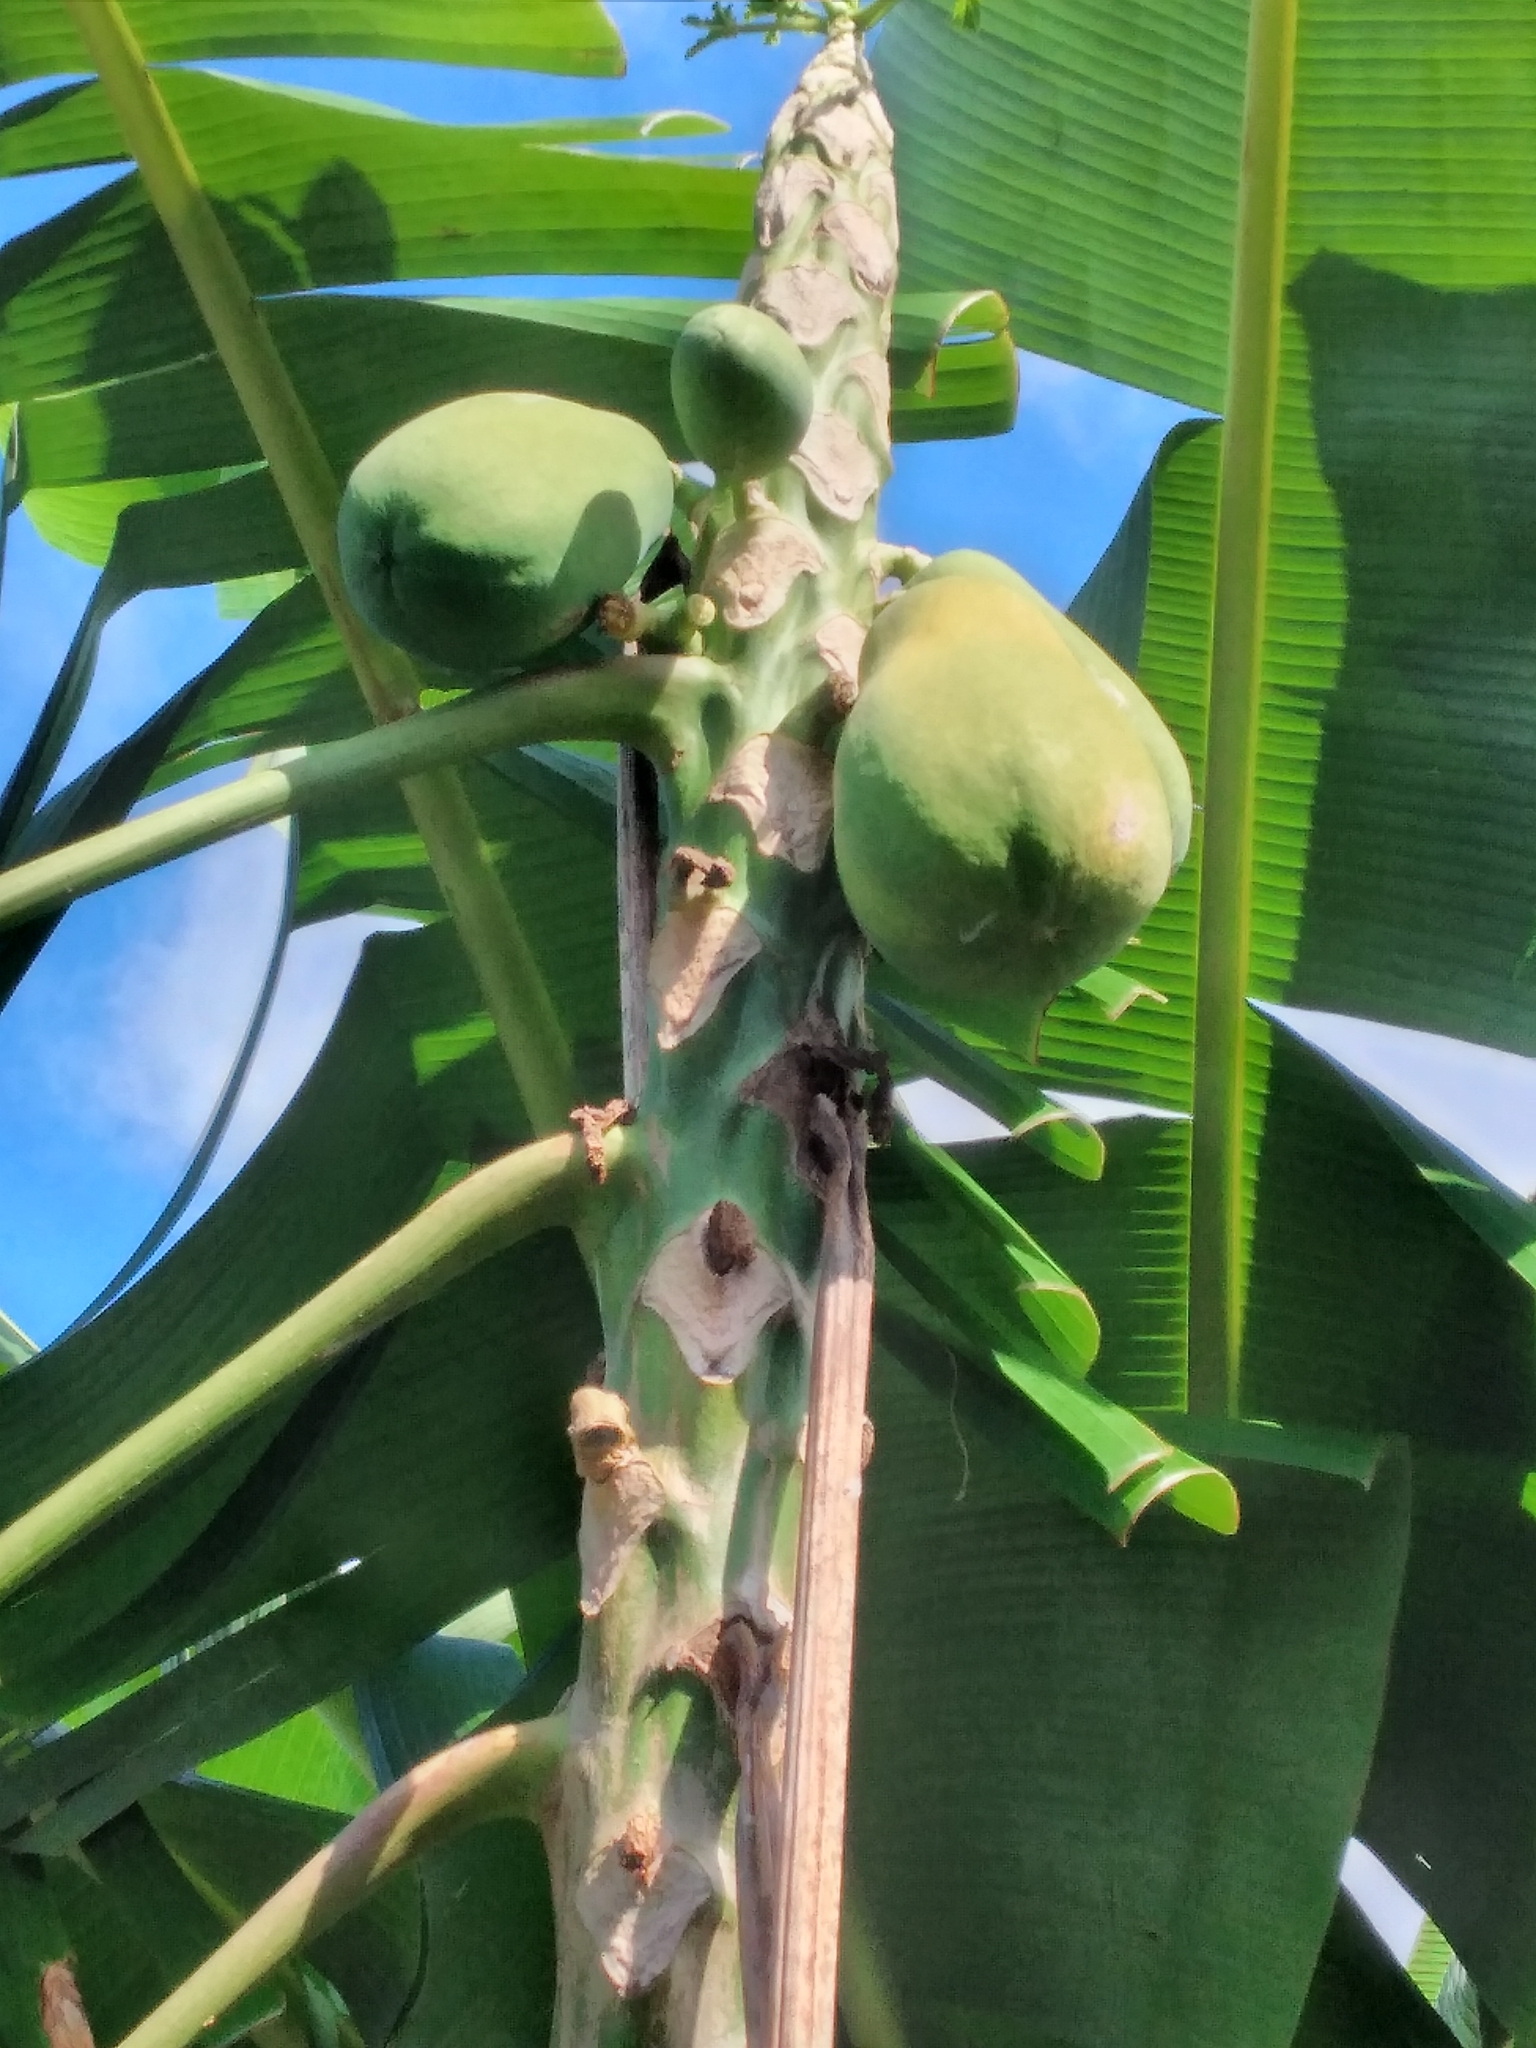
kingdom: Plantae
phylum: Tracheophyta
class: Magnoliopsida
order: Brassicales
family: Caricaceae
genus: Carica
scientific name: Carica papaya
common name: Papaya
